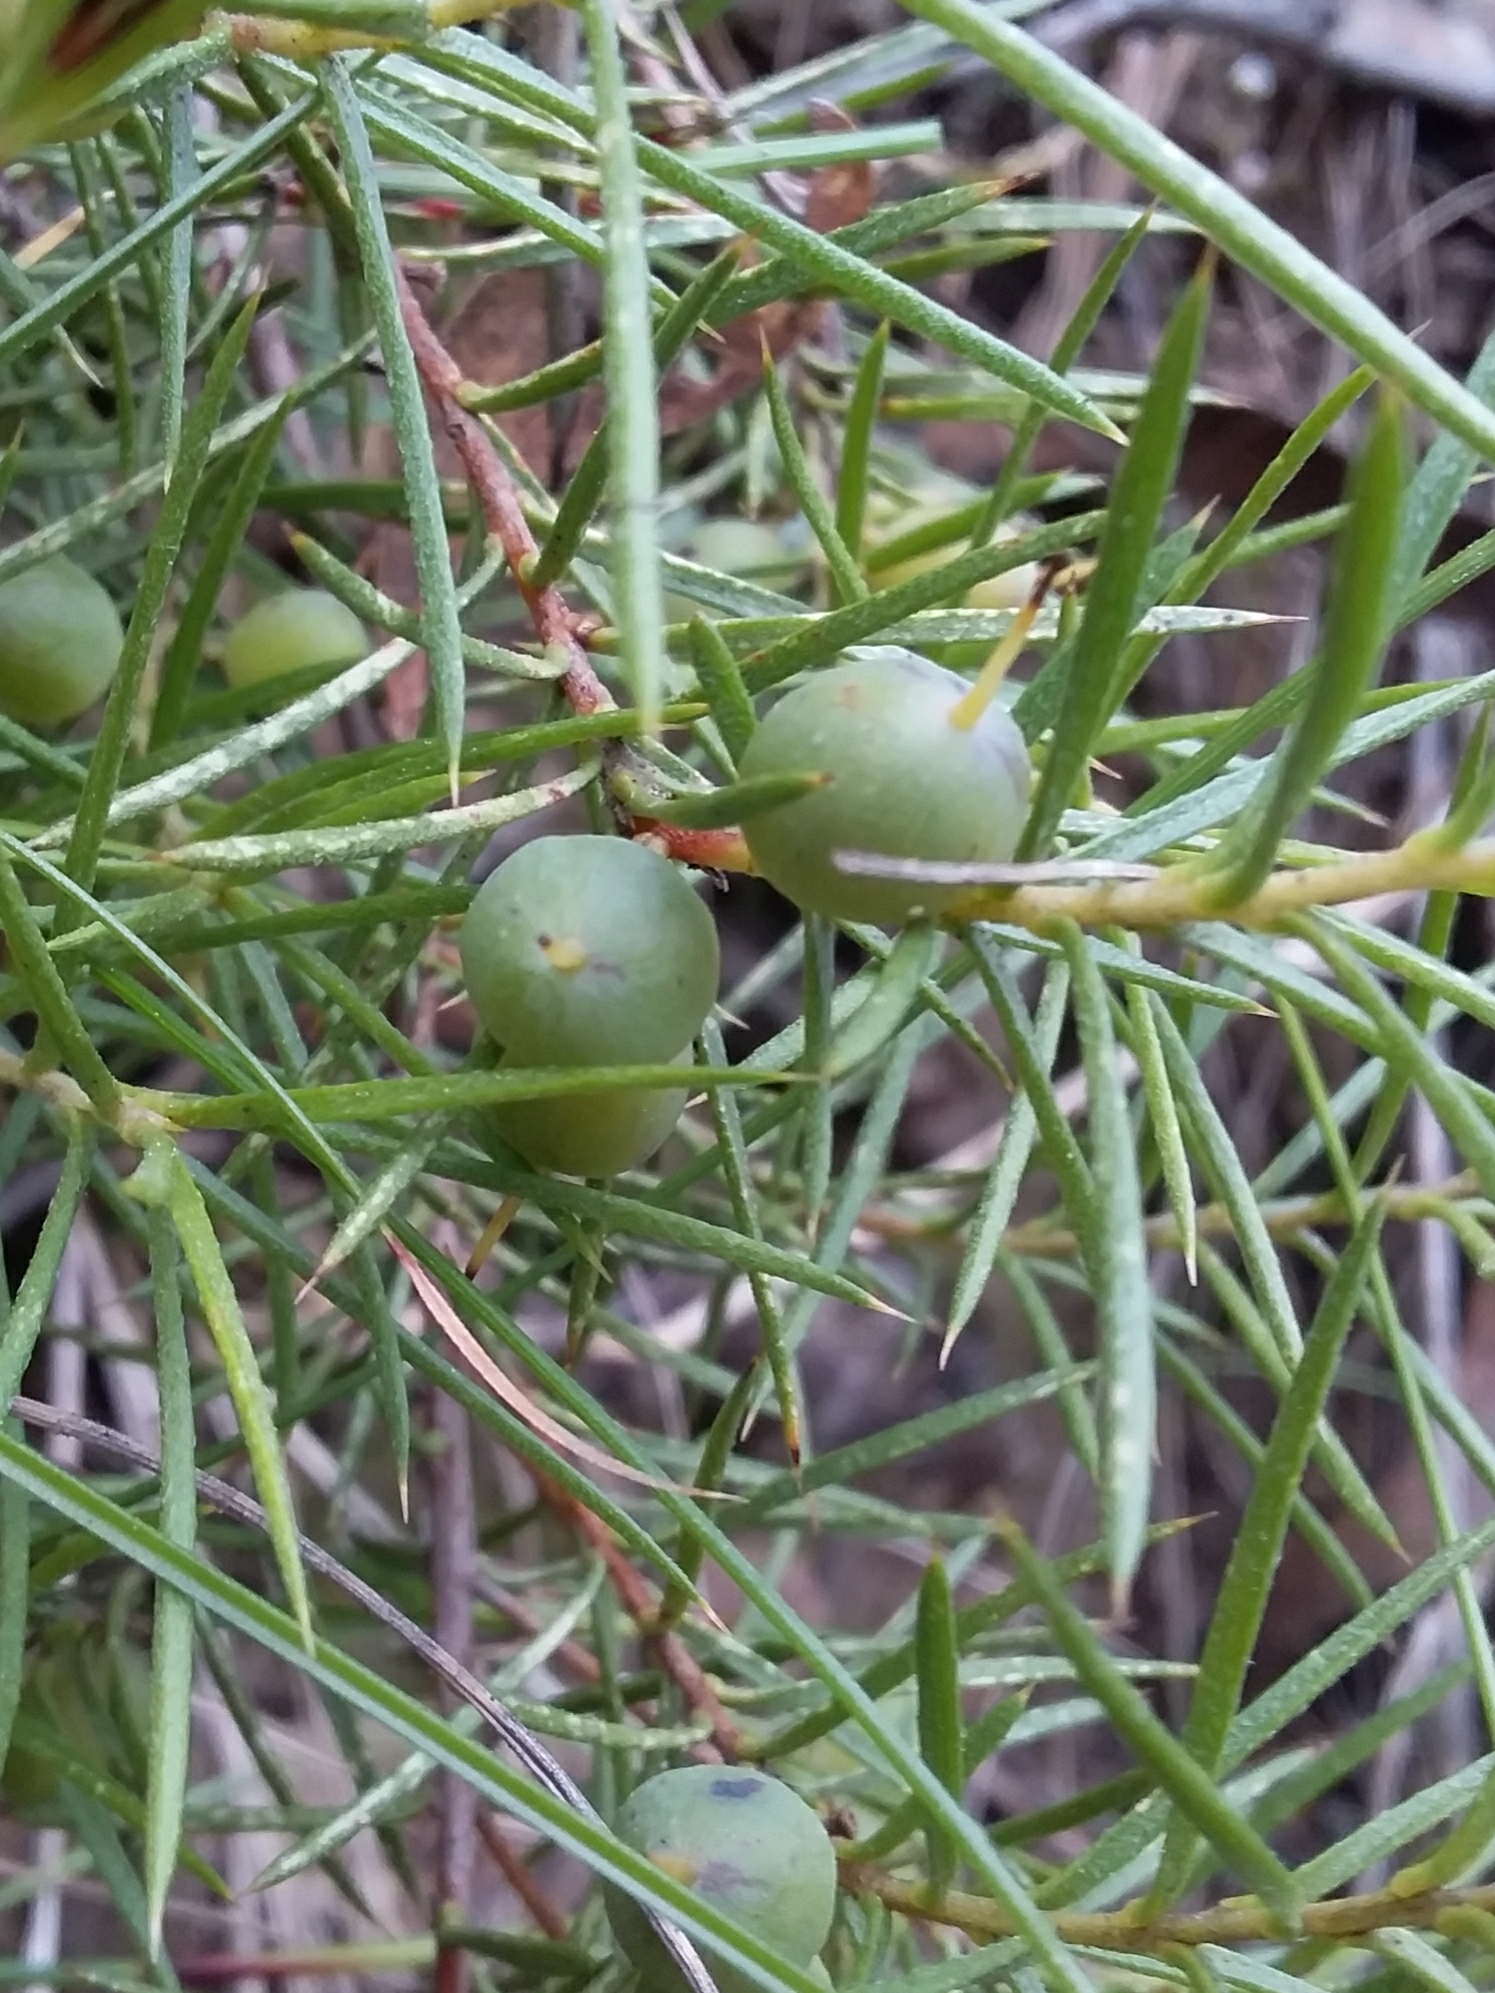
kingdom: Plantae
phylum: Tracheophyta
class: Magnoliopsida
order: Proteales
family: Proteaceae
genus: Persoonia
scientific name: Persoonia juniperina
